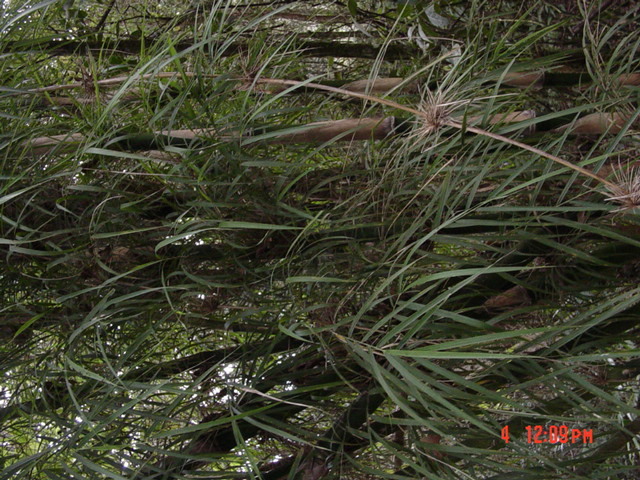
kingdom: Plantae
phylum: Tracheophyta
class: Liliopsida
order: Poales
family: Poaceae
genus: Chusquea
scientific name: Chusquea longifolia
